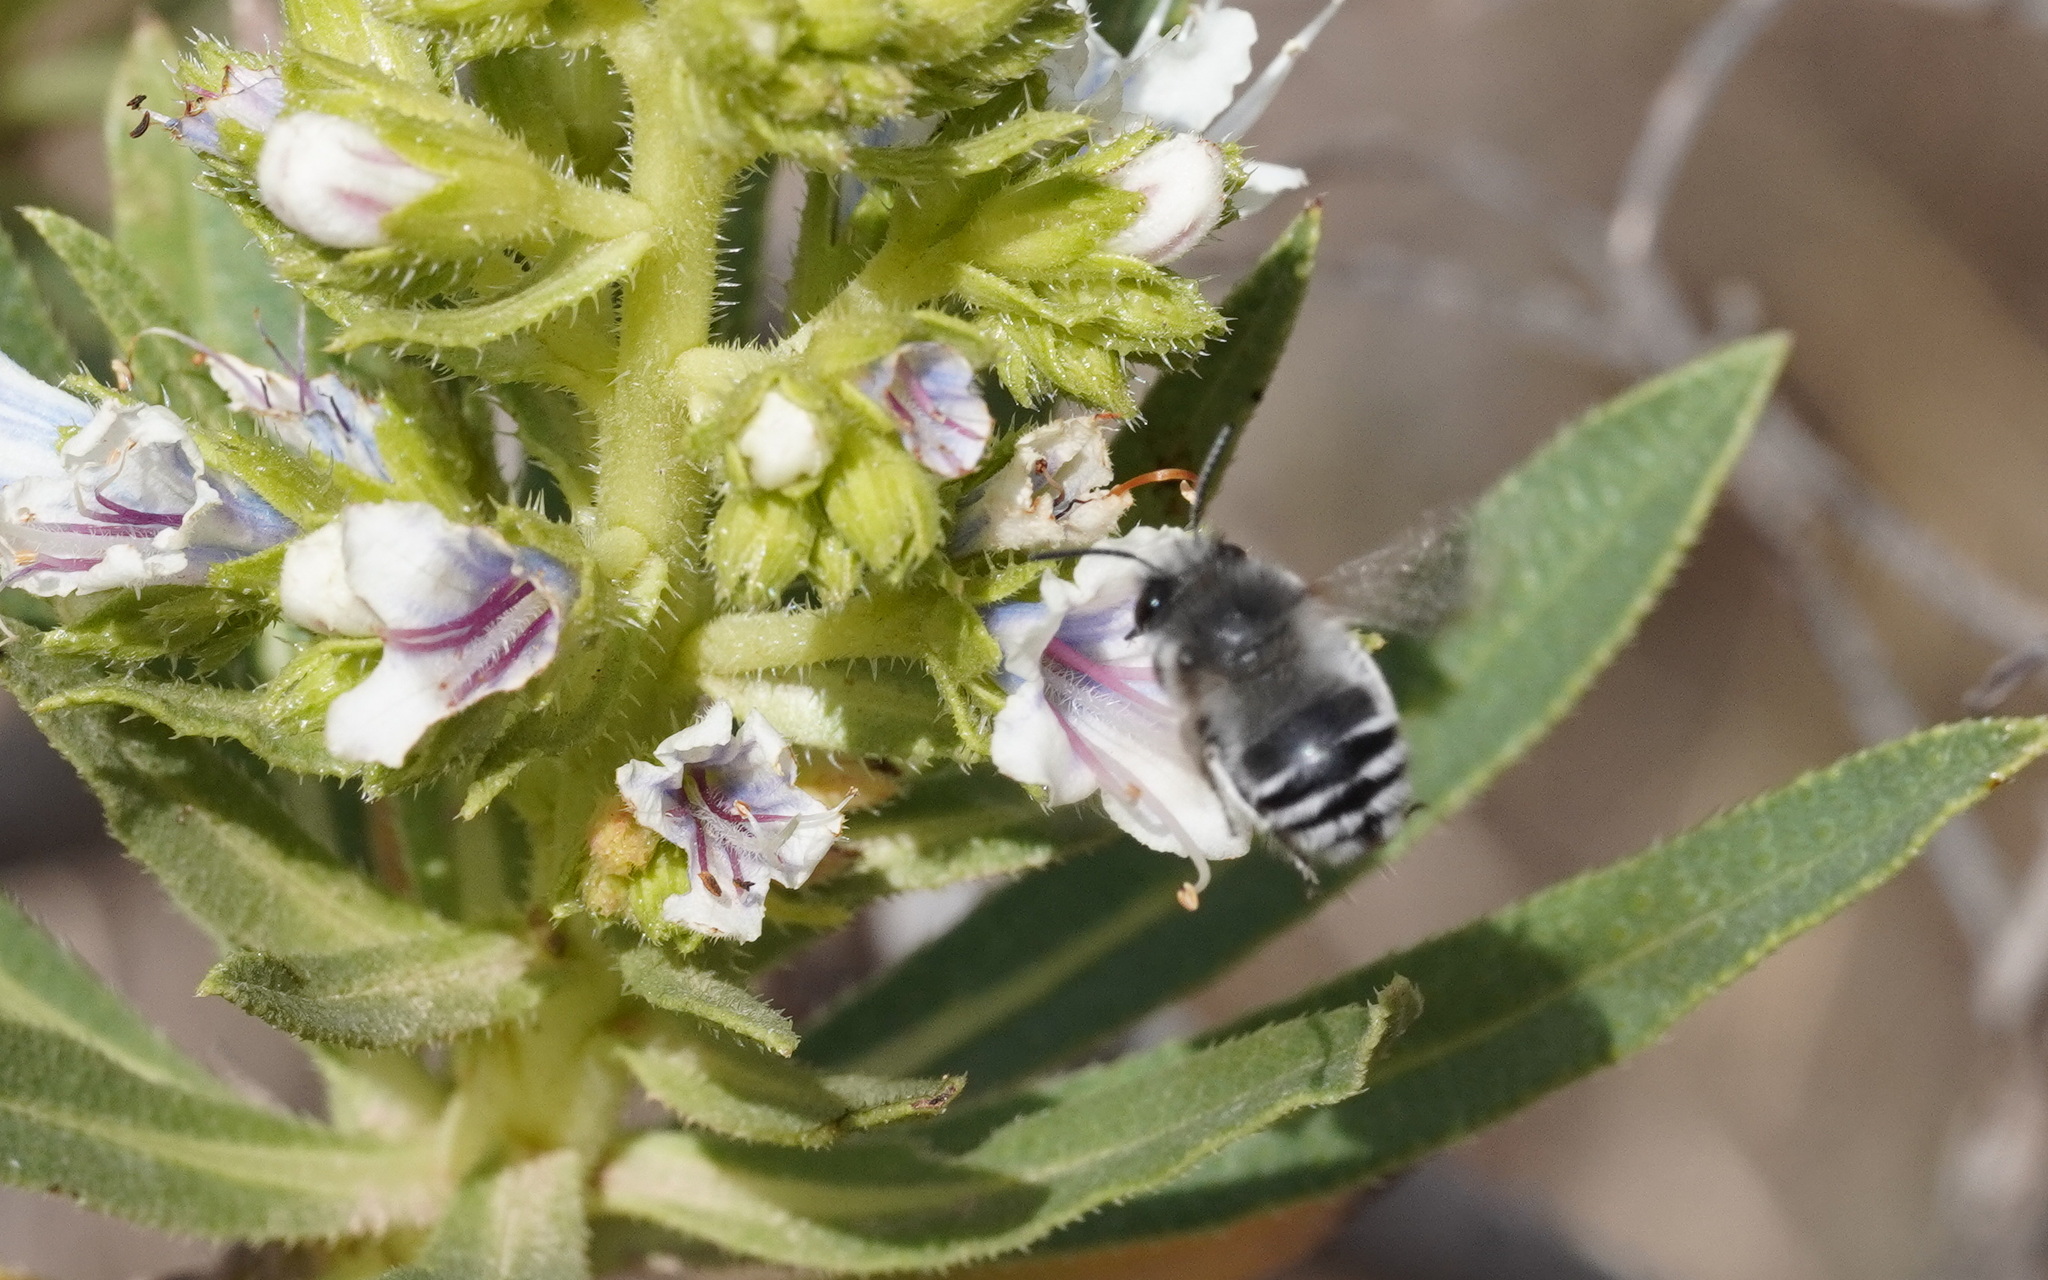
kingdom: Animalia
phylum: Arthropoda
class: Insecta
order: Hymenoptera
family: Apidae
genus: Anthophora
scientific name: Anthophora alluaudi
